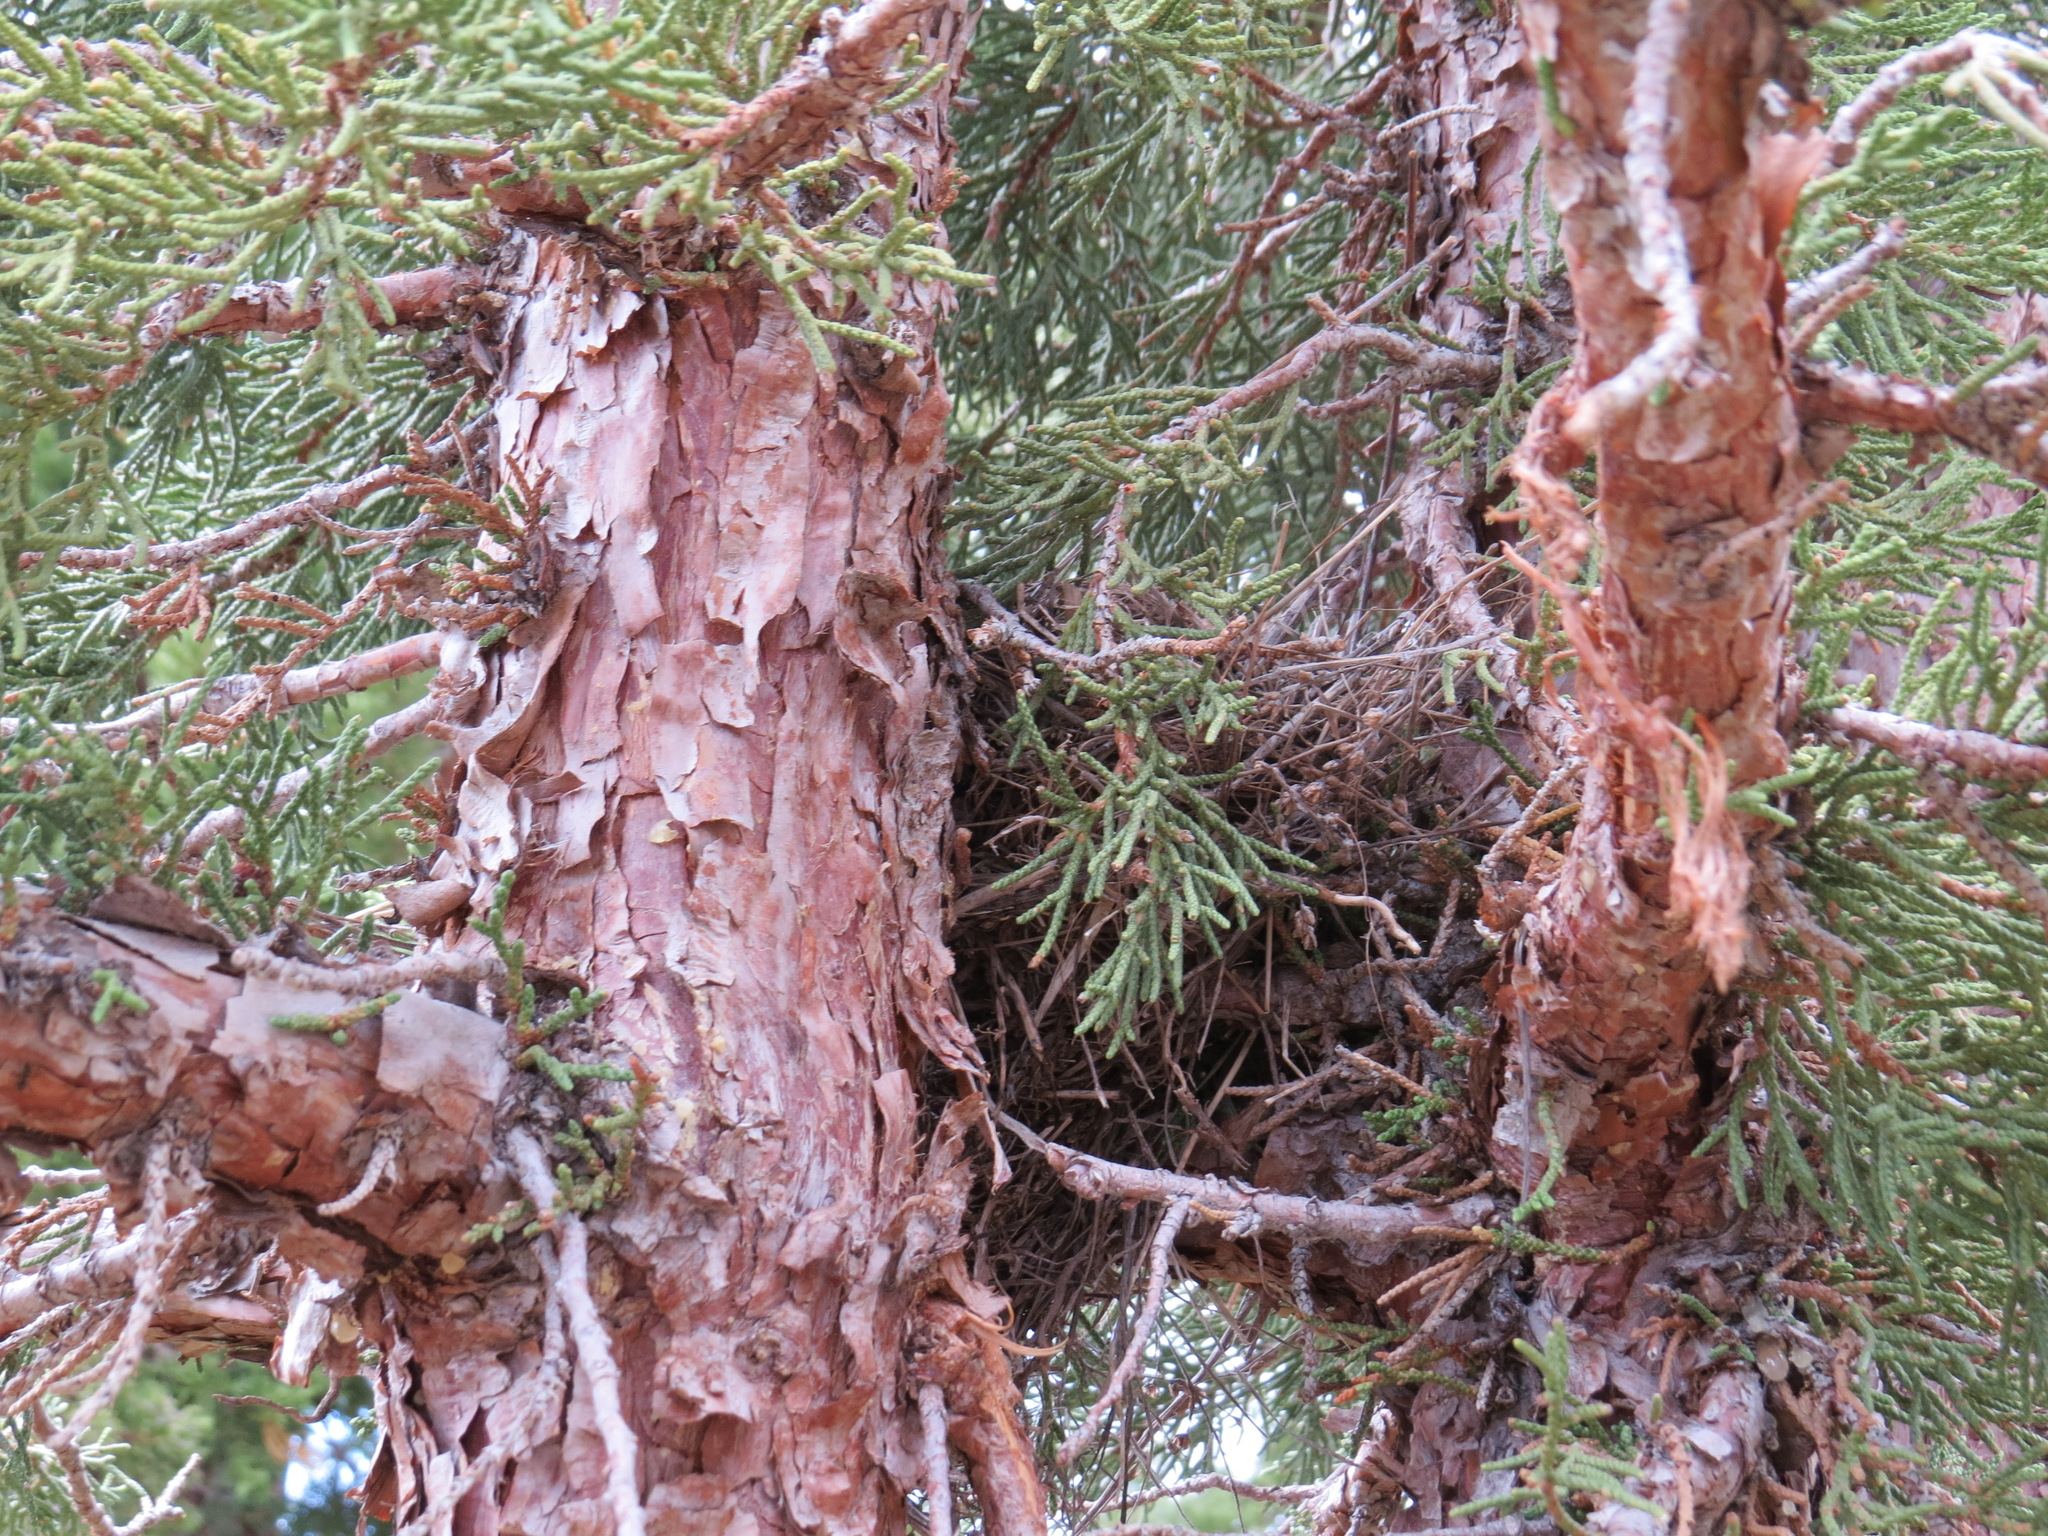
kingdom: Animalia
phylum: Chordata
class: Aves
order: Passeriformes
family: Turdidae
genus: Turdus
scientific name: Turdus migratorius
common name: American robin
